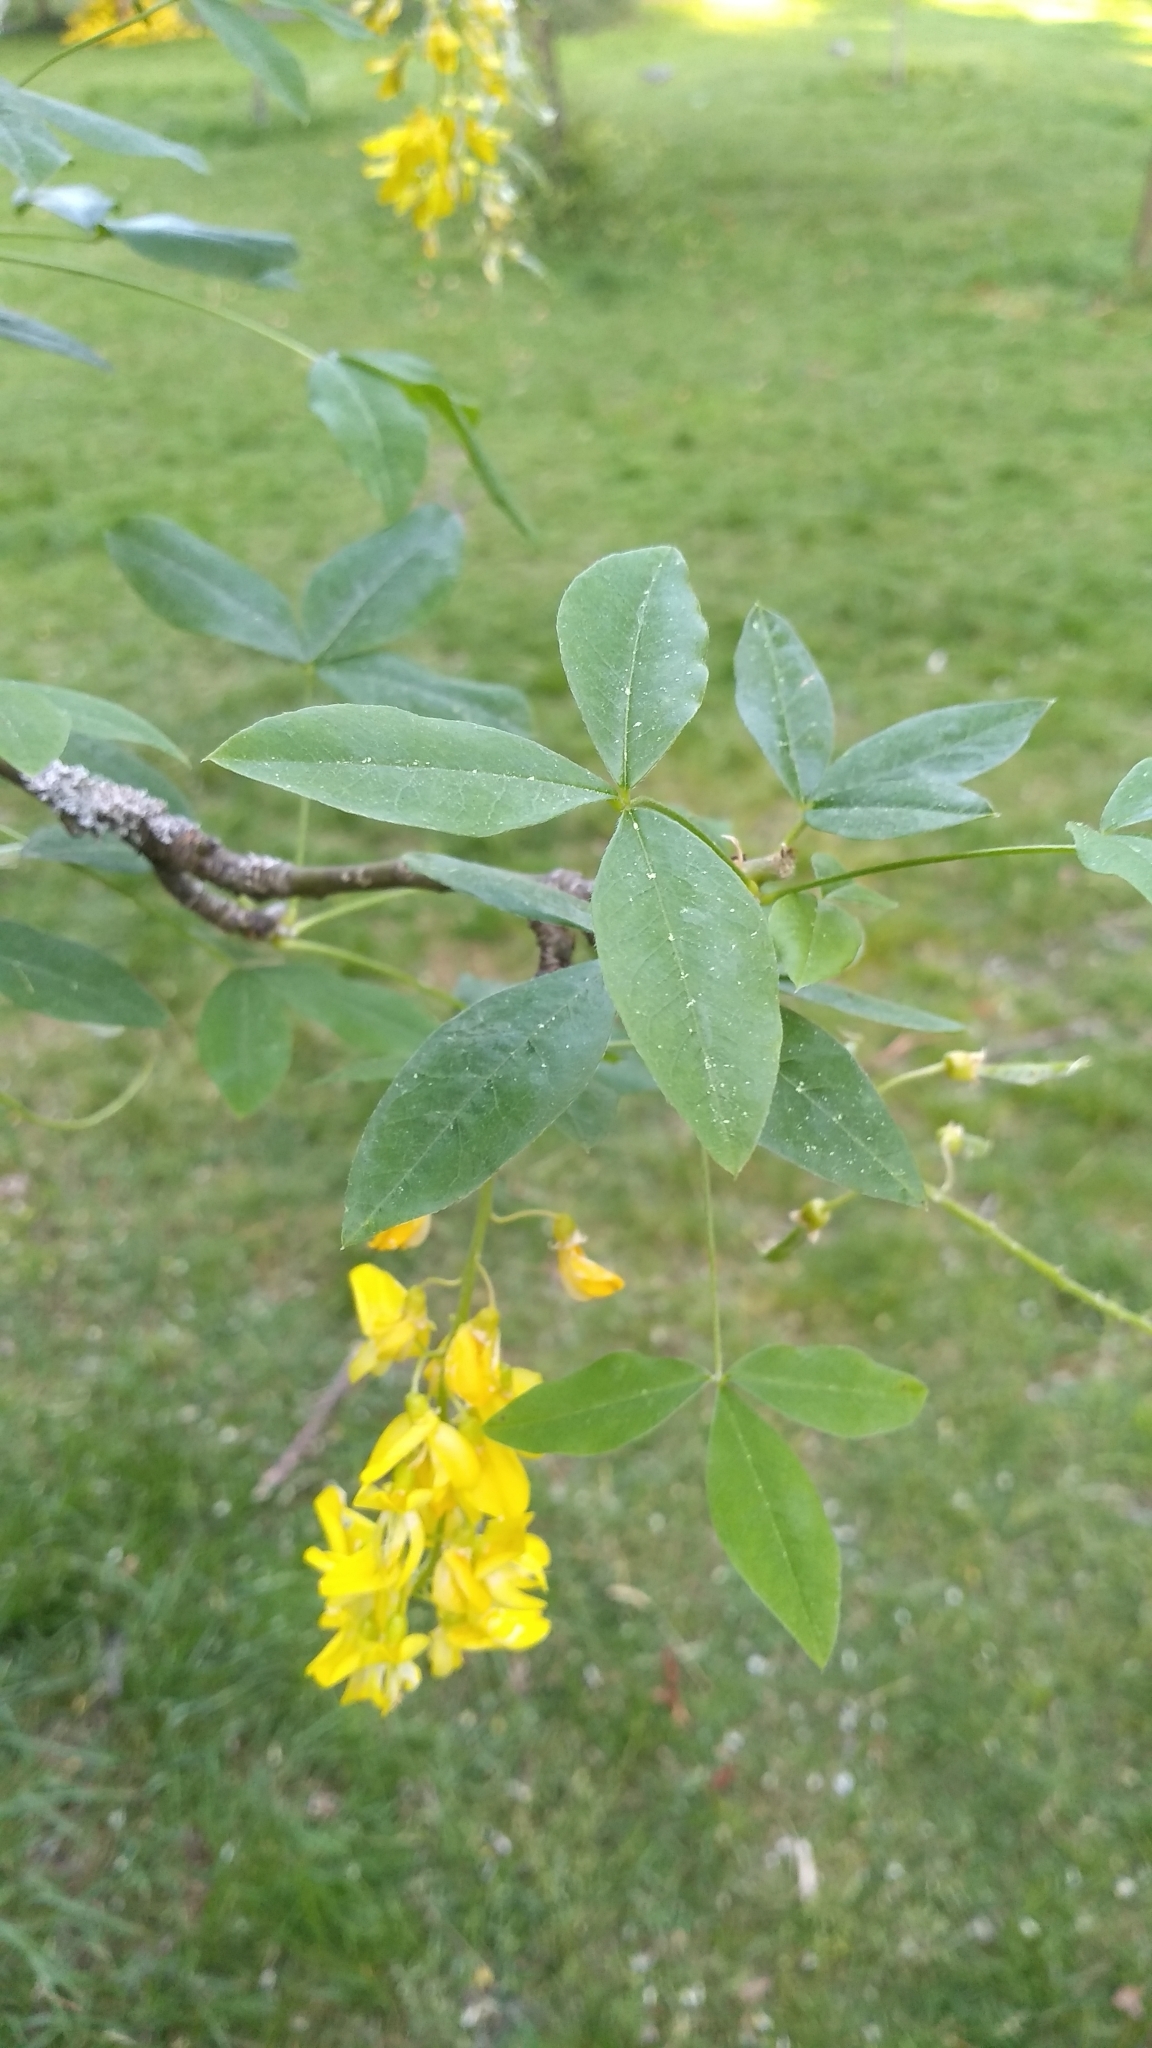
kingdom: Plantae
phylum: Tracheophyta
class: Magnoliopsida
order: Fabales
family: Fabaceae
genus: Laburnum
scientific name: Laburnum anagyroides
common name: Laburnum
